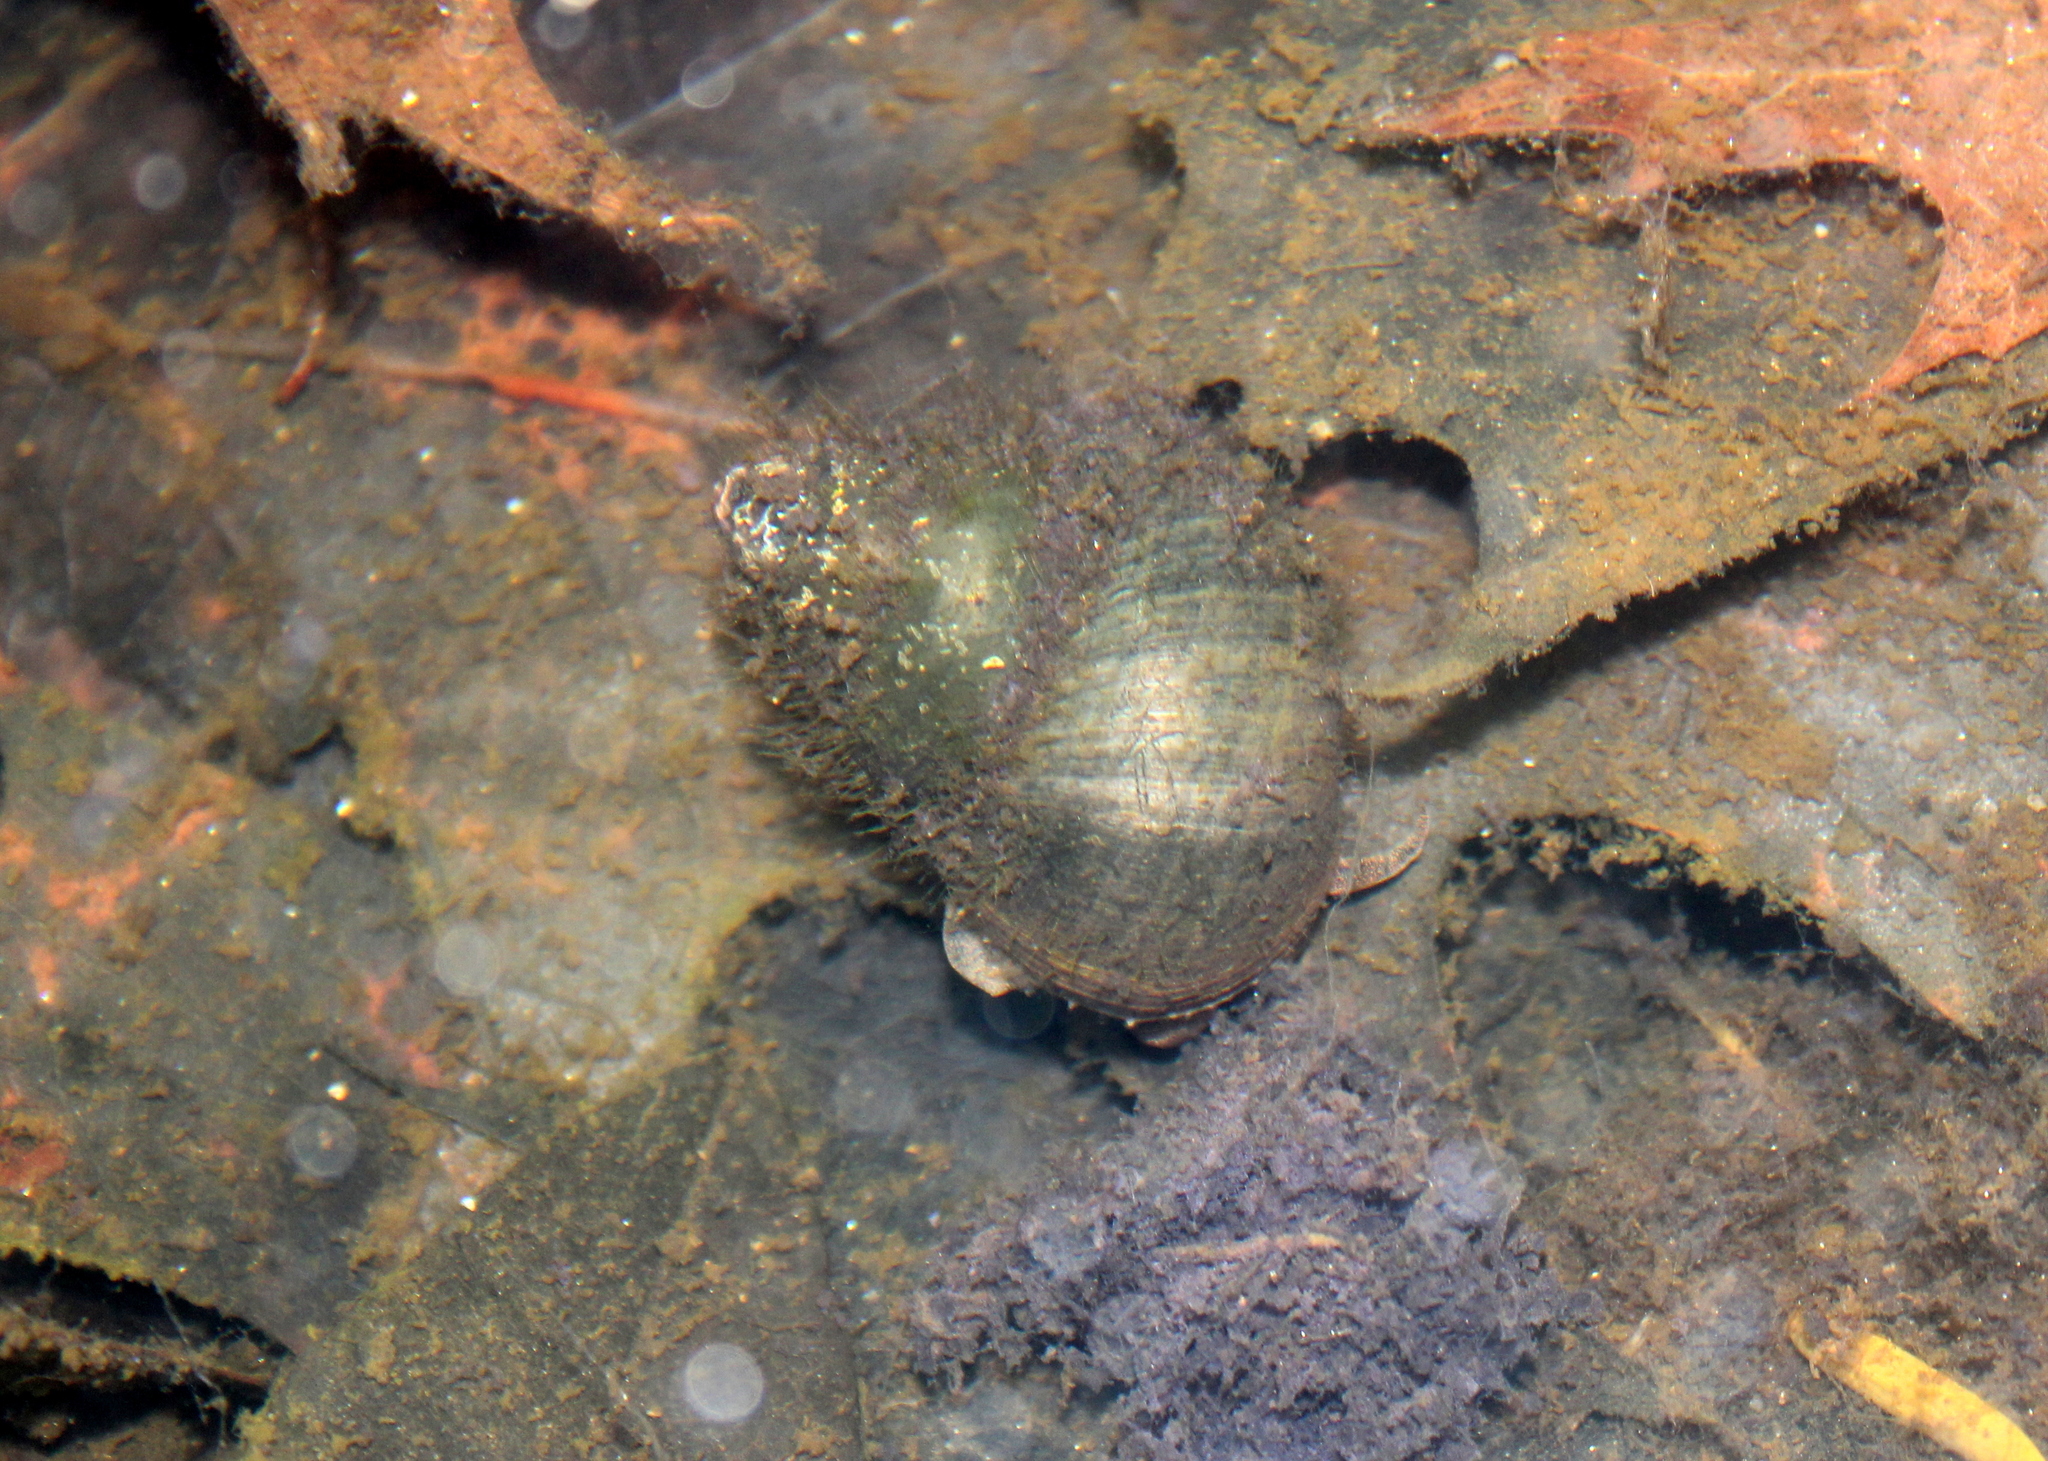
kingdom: Animalia
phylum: Mollusca
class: Gastropoda
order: Architaenioglossa
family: Viviparidae
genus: Cipangopaludina
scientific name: Cipangopaludina chinensis
